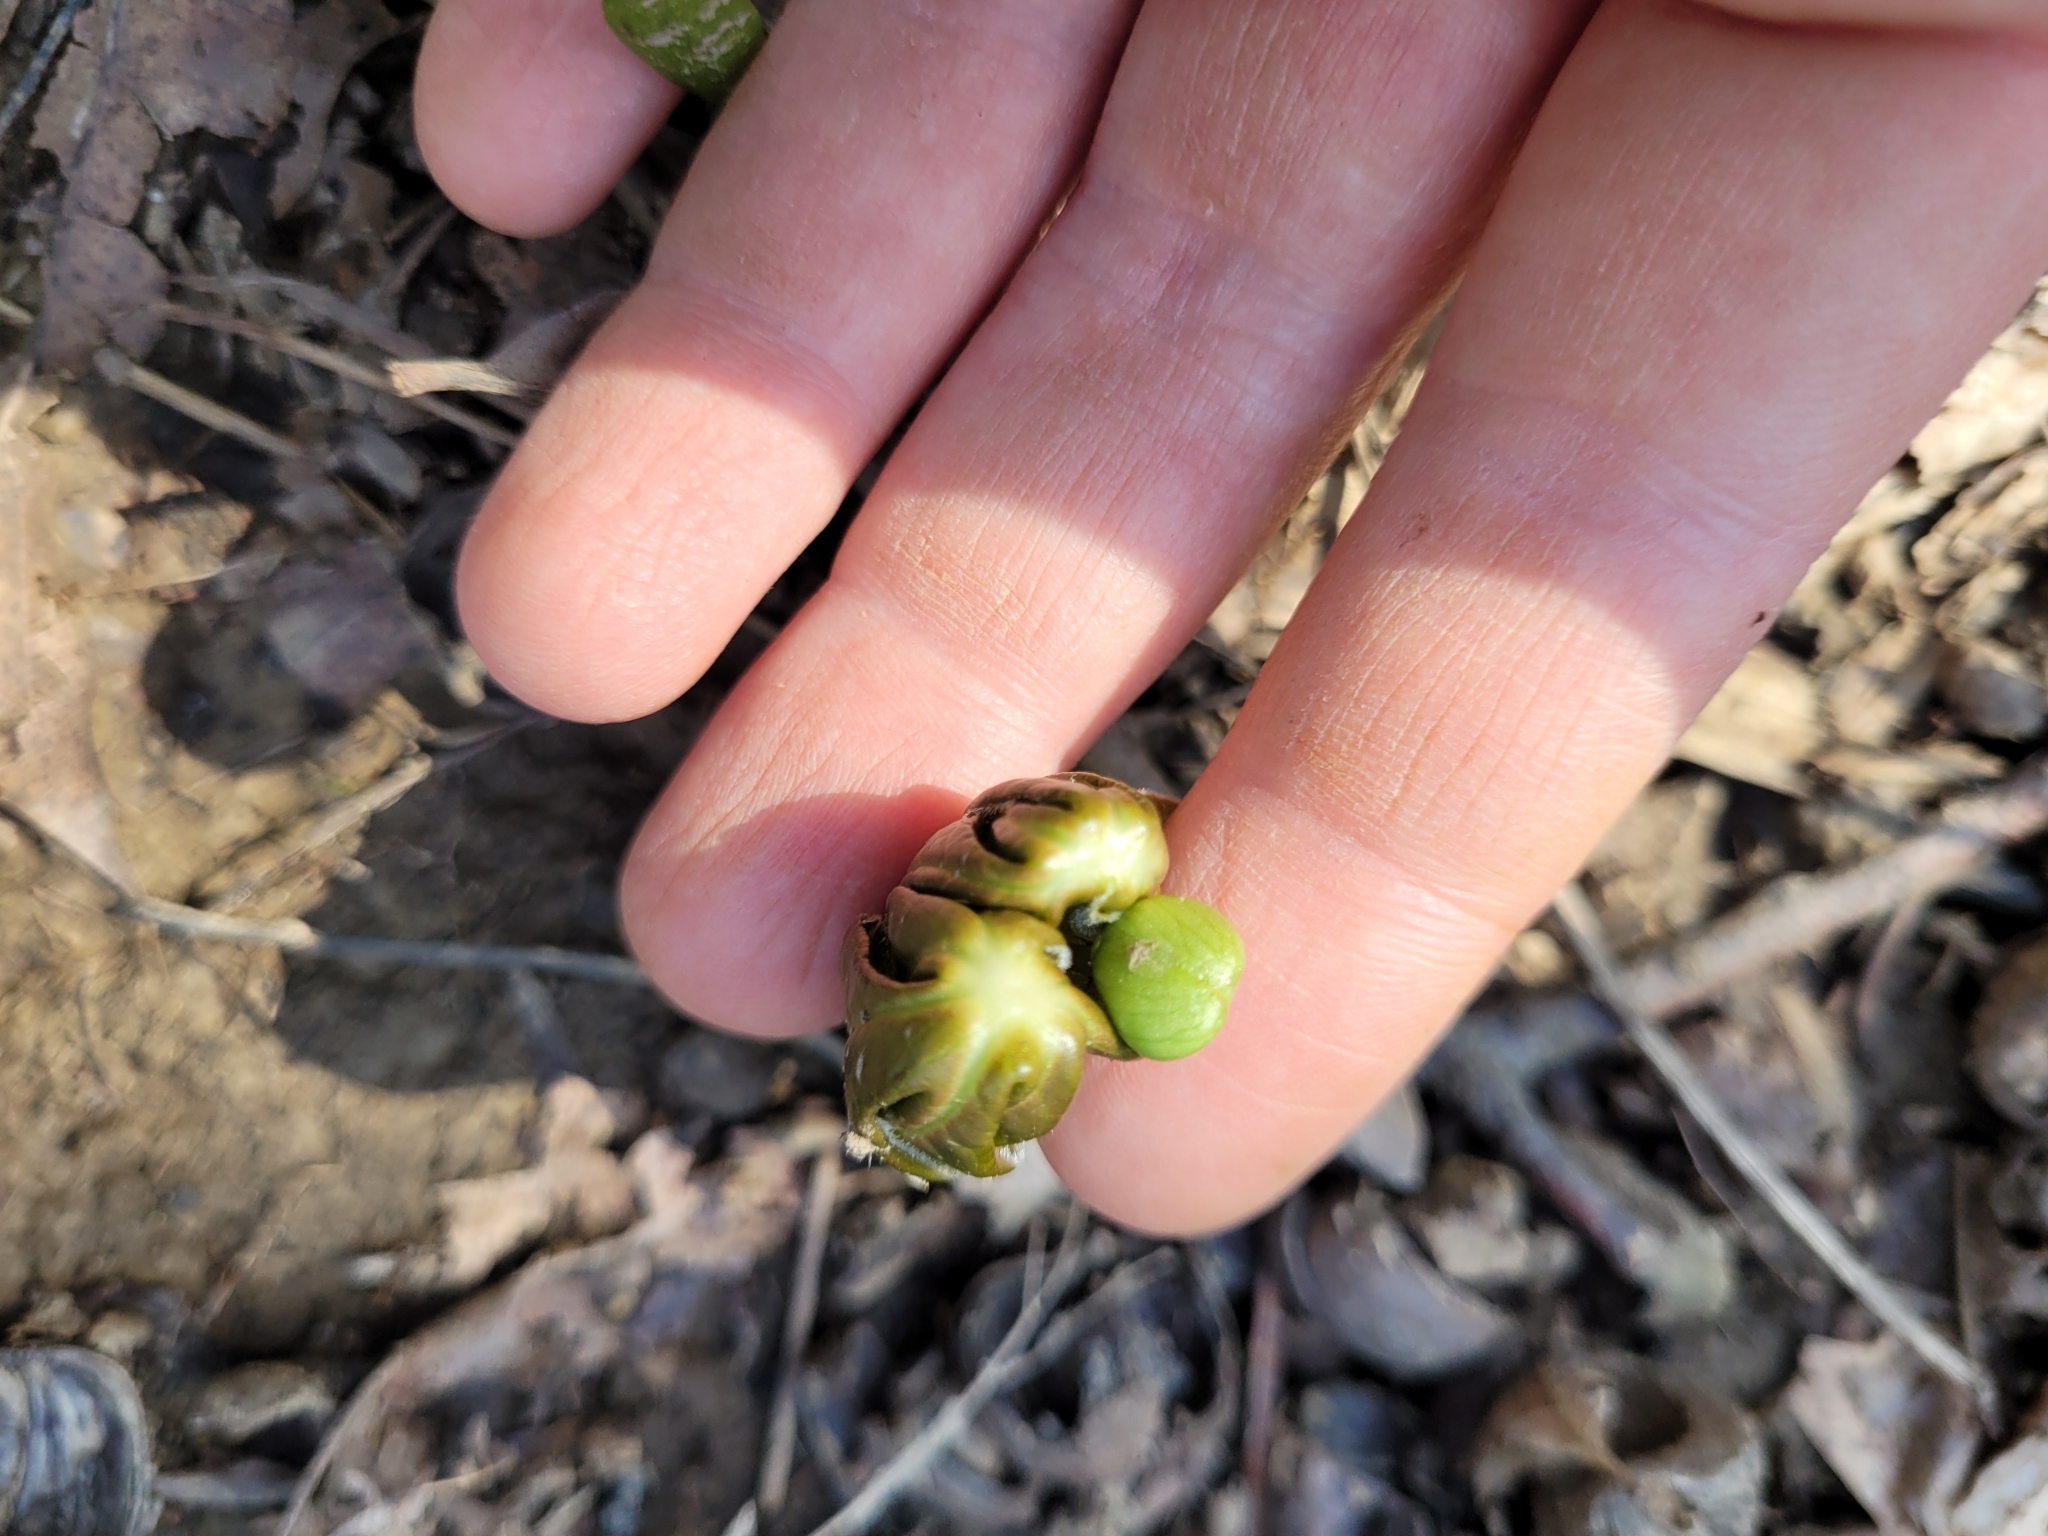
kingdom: Plantae
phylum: Tracheophyta
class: Magnoliopsida
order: Ranunculales
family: Berberidaceae
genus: Podophyllum
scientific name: Podophyllum peltatum
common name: Wild mandrake
